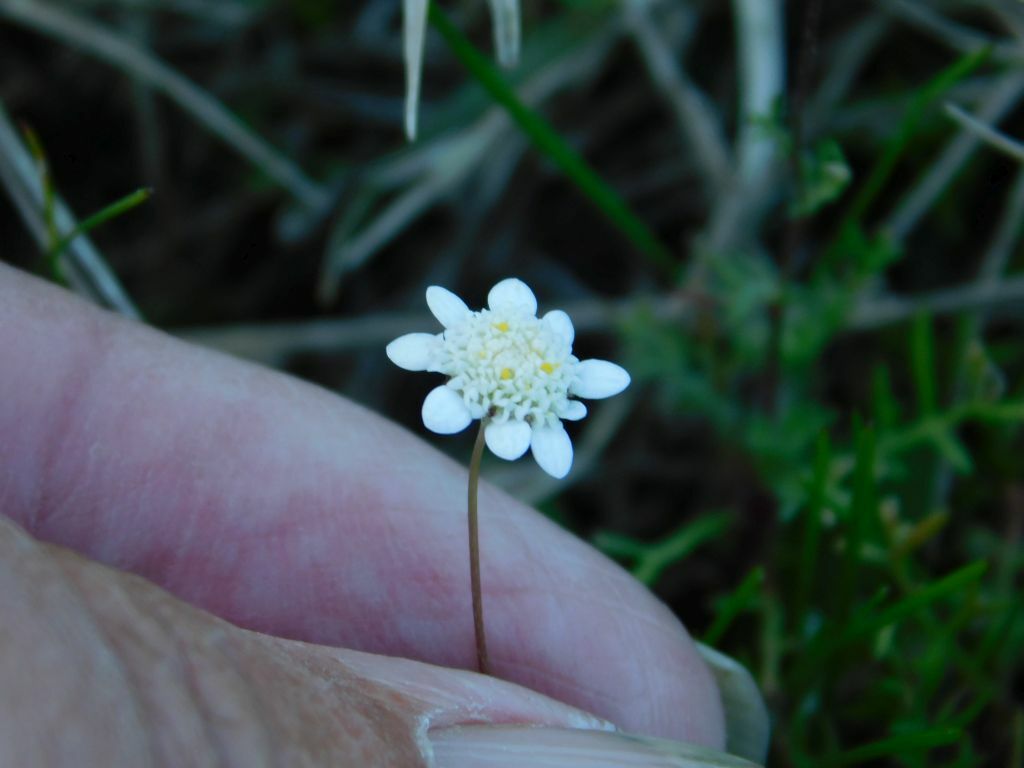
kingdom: Plantae
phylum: Tracheophyta
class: Magnoliopsida
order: Asterales
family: Asteraceae
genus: Cotula
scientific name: Cotula turbinata
